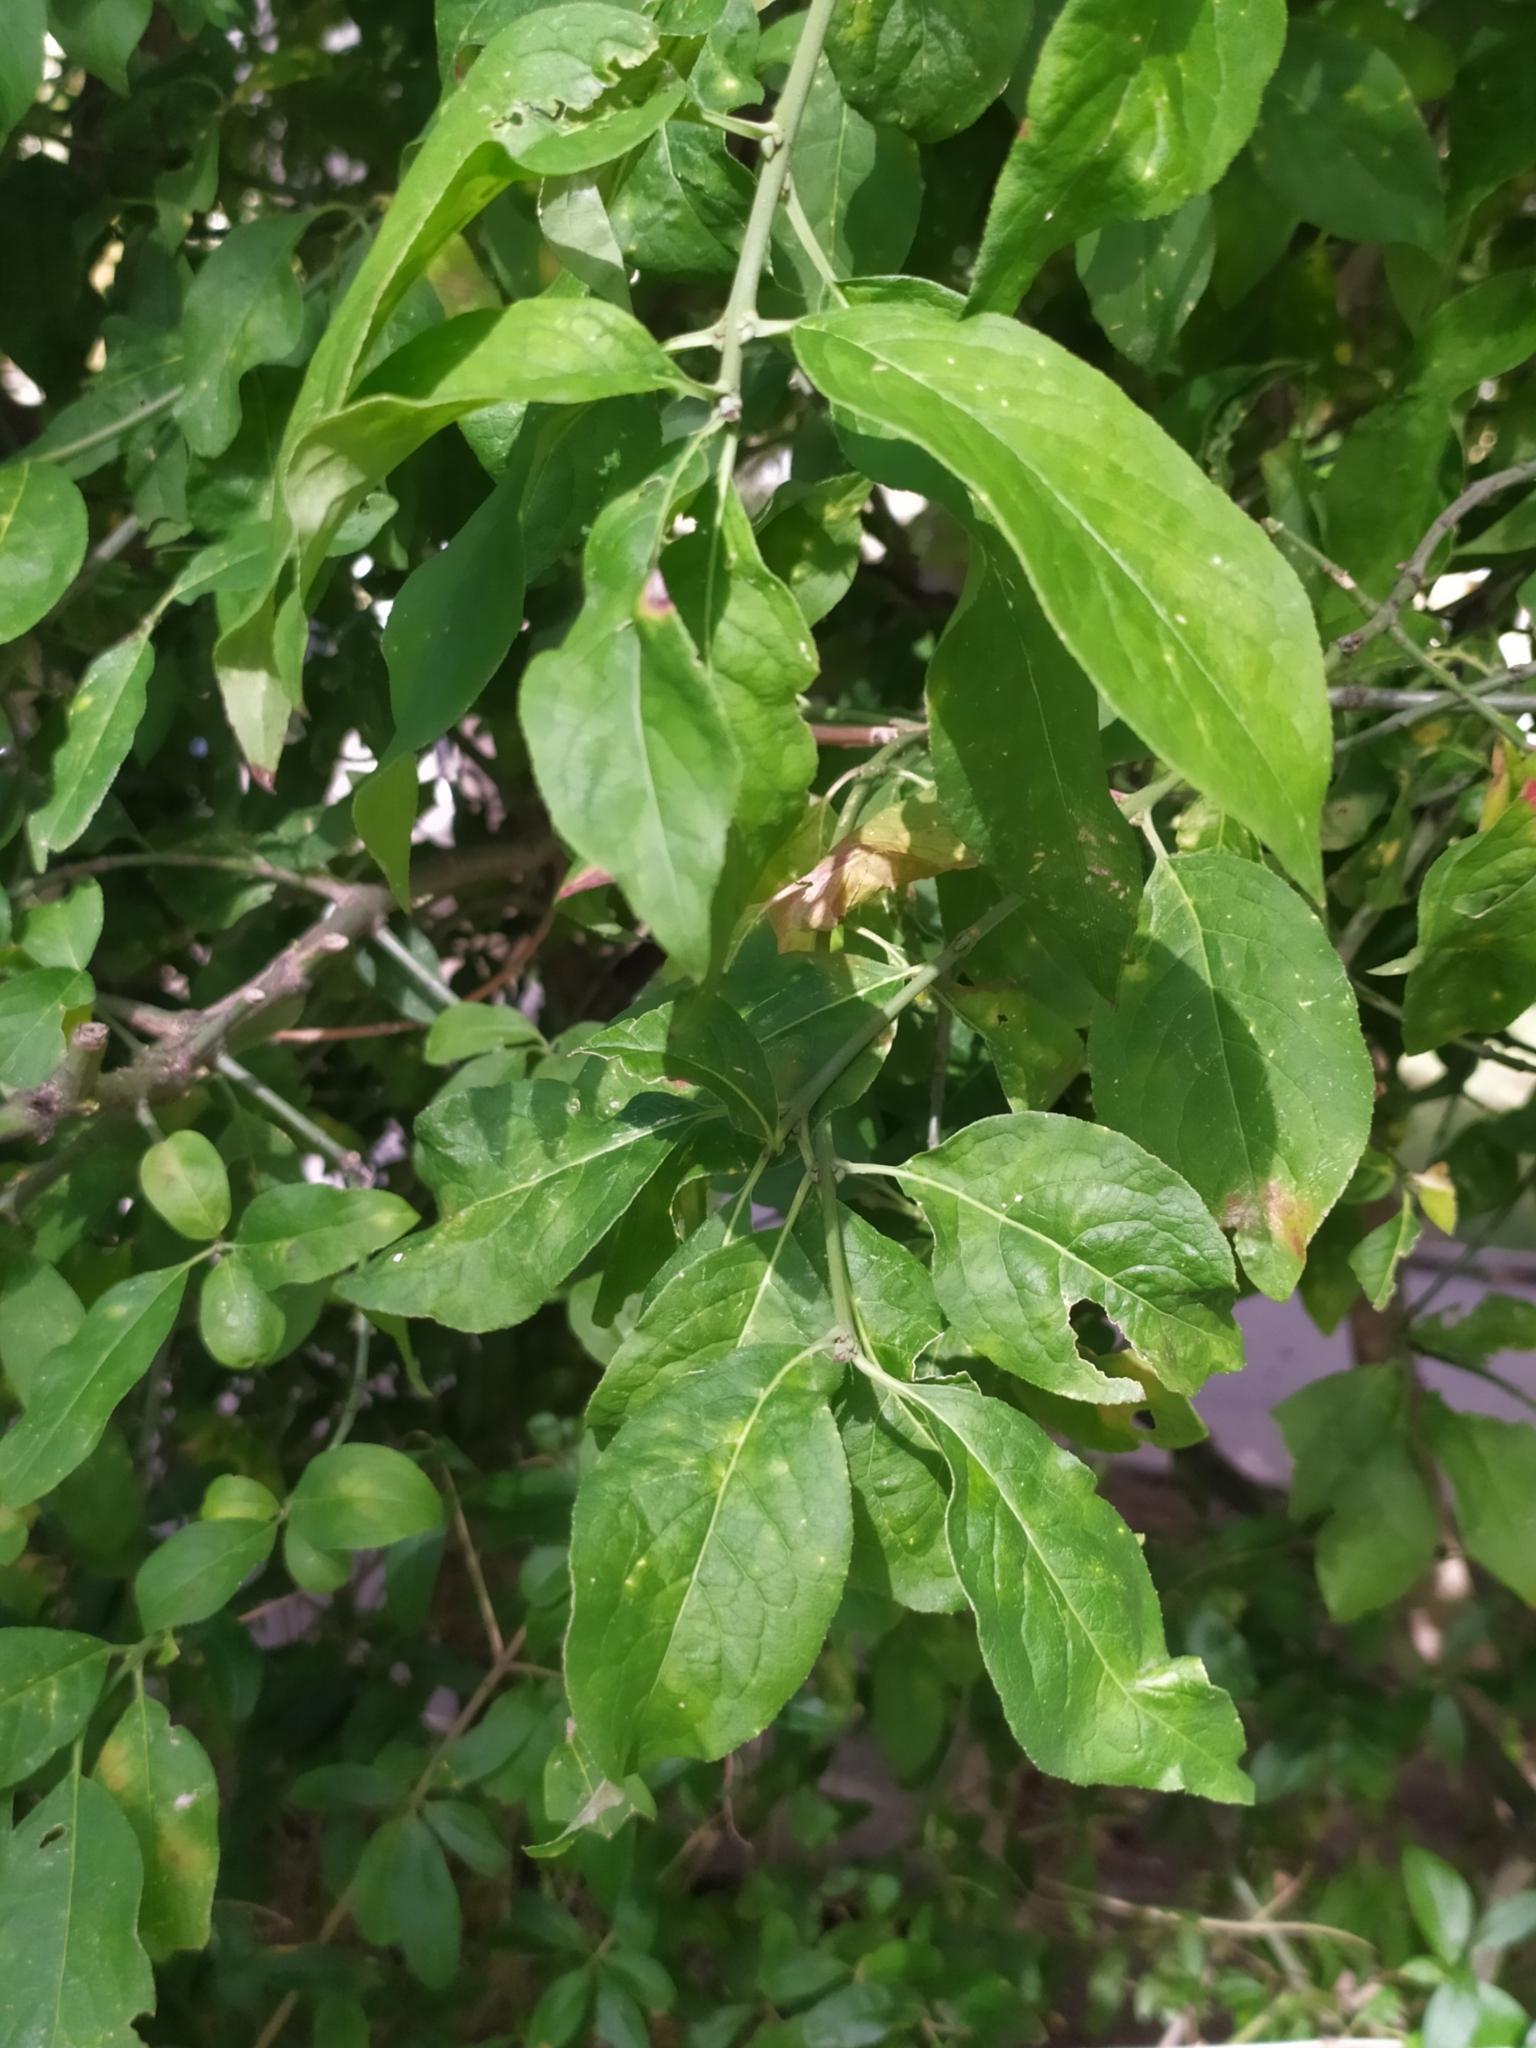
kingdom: Plantae
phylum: Tracheophyta
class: Magnoliopsida
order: Celastrales
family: Celastraceae
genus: Euonymus
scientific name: Euonymus europaeus
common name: Spindle
